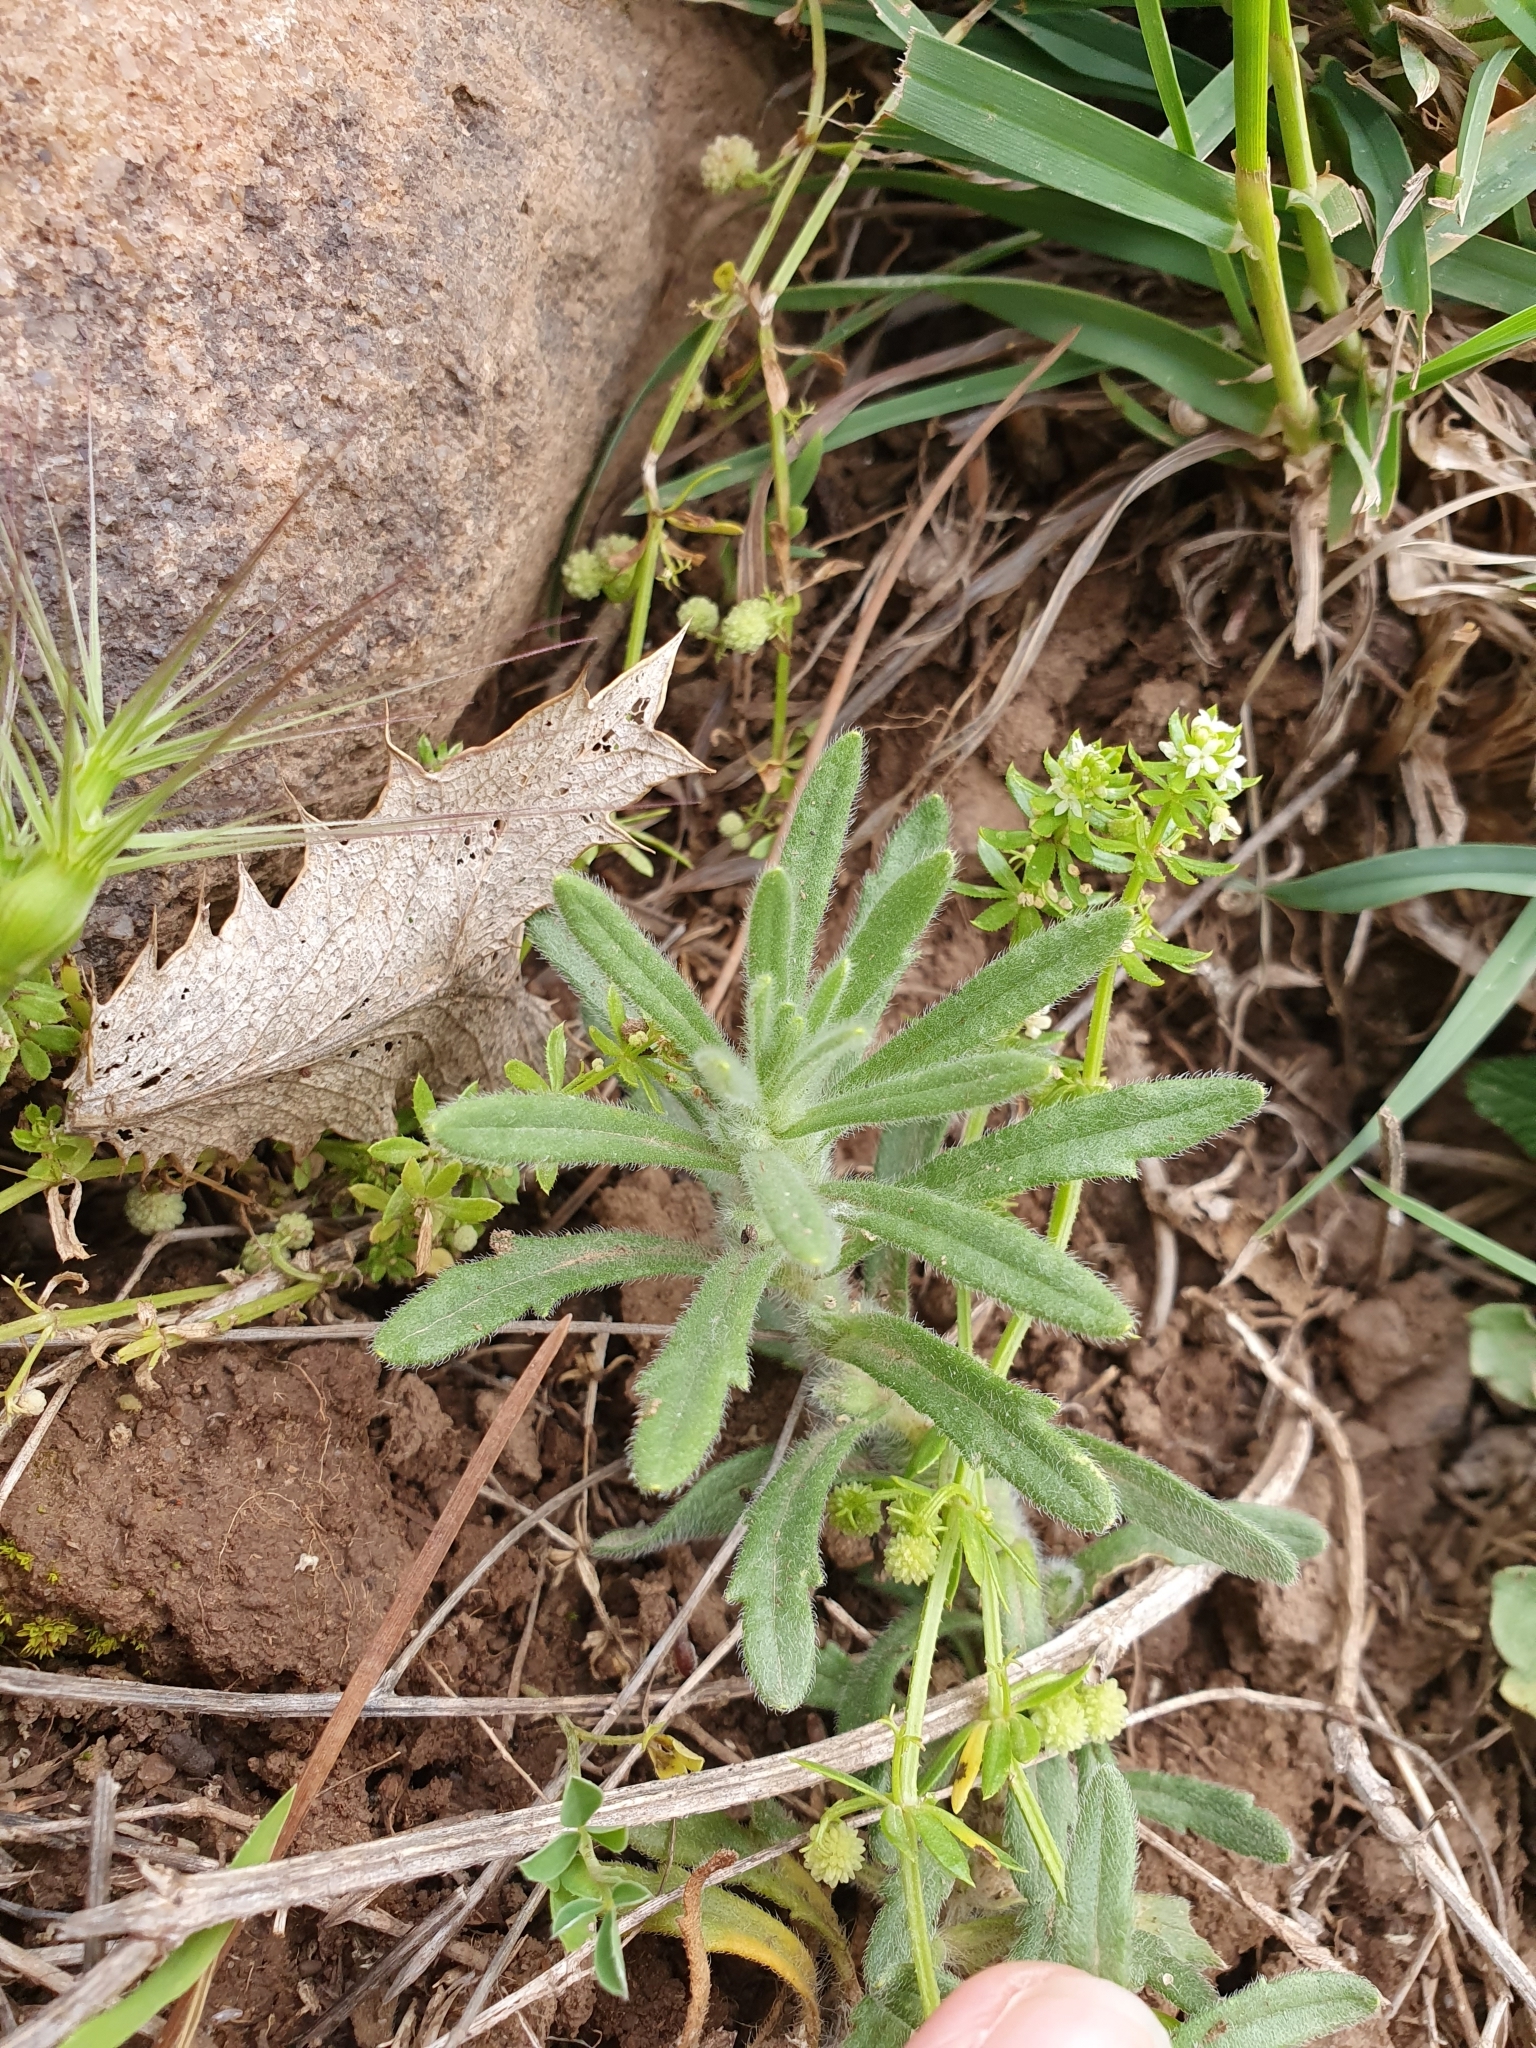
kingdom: Plantae
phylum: Tracheophyta
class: Magnoliopsida
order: Lamiales
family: Lamiaceae
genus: Ajuga
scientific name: Ajuga iva
